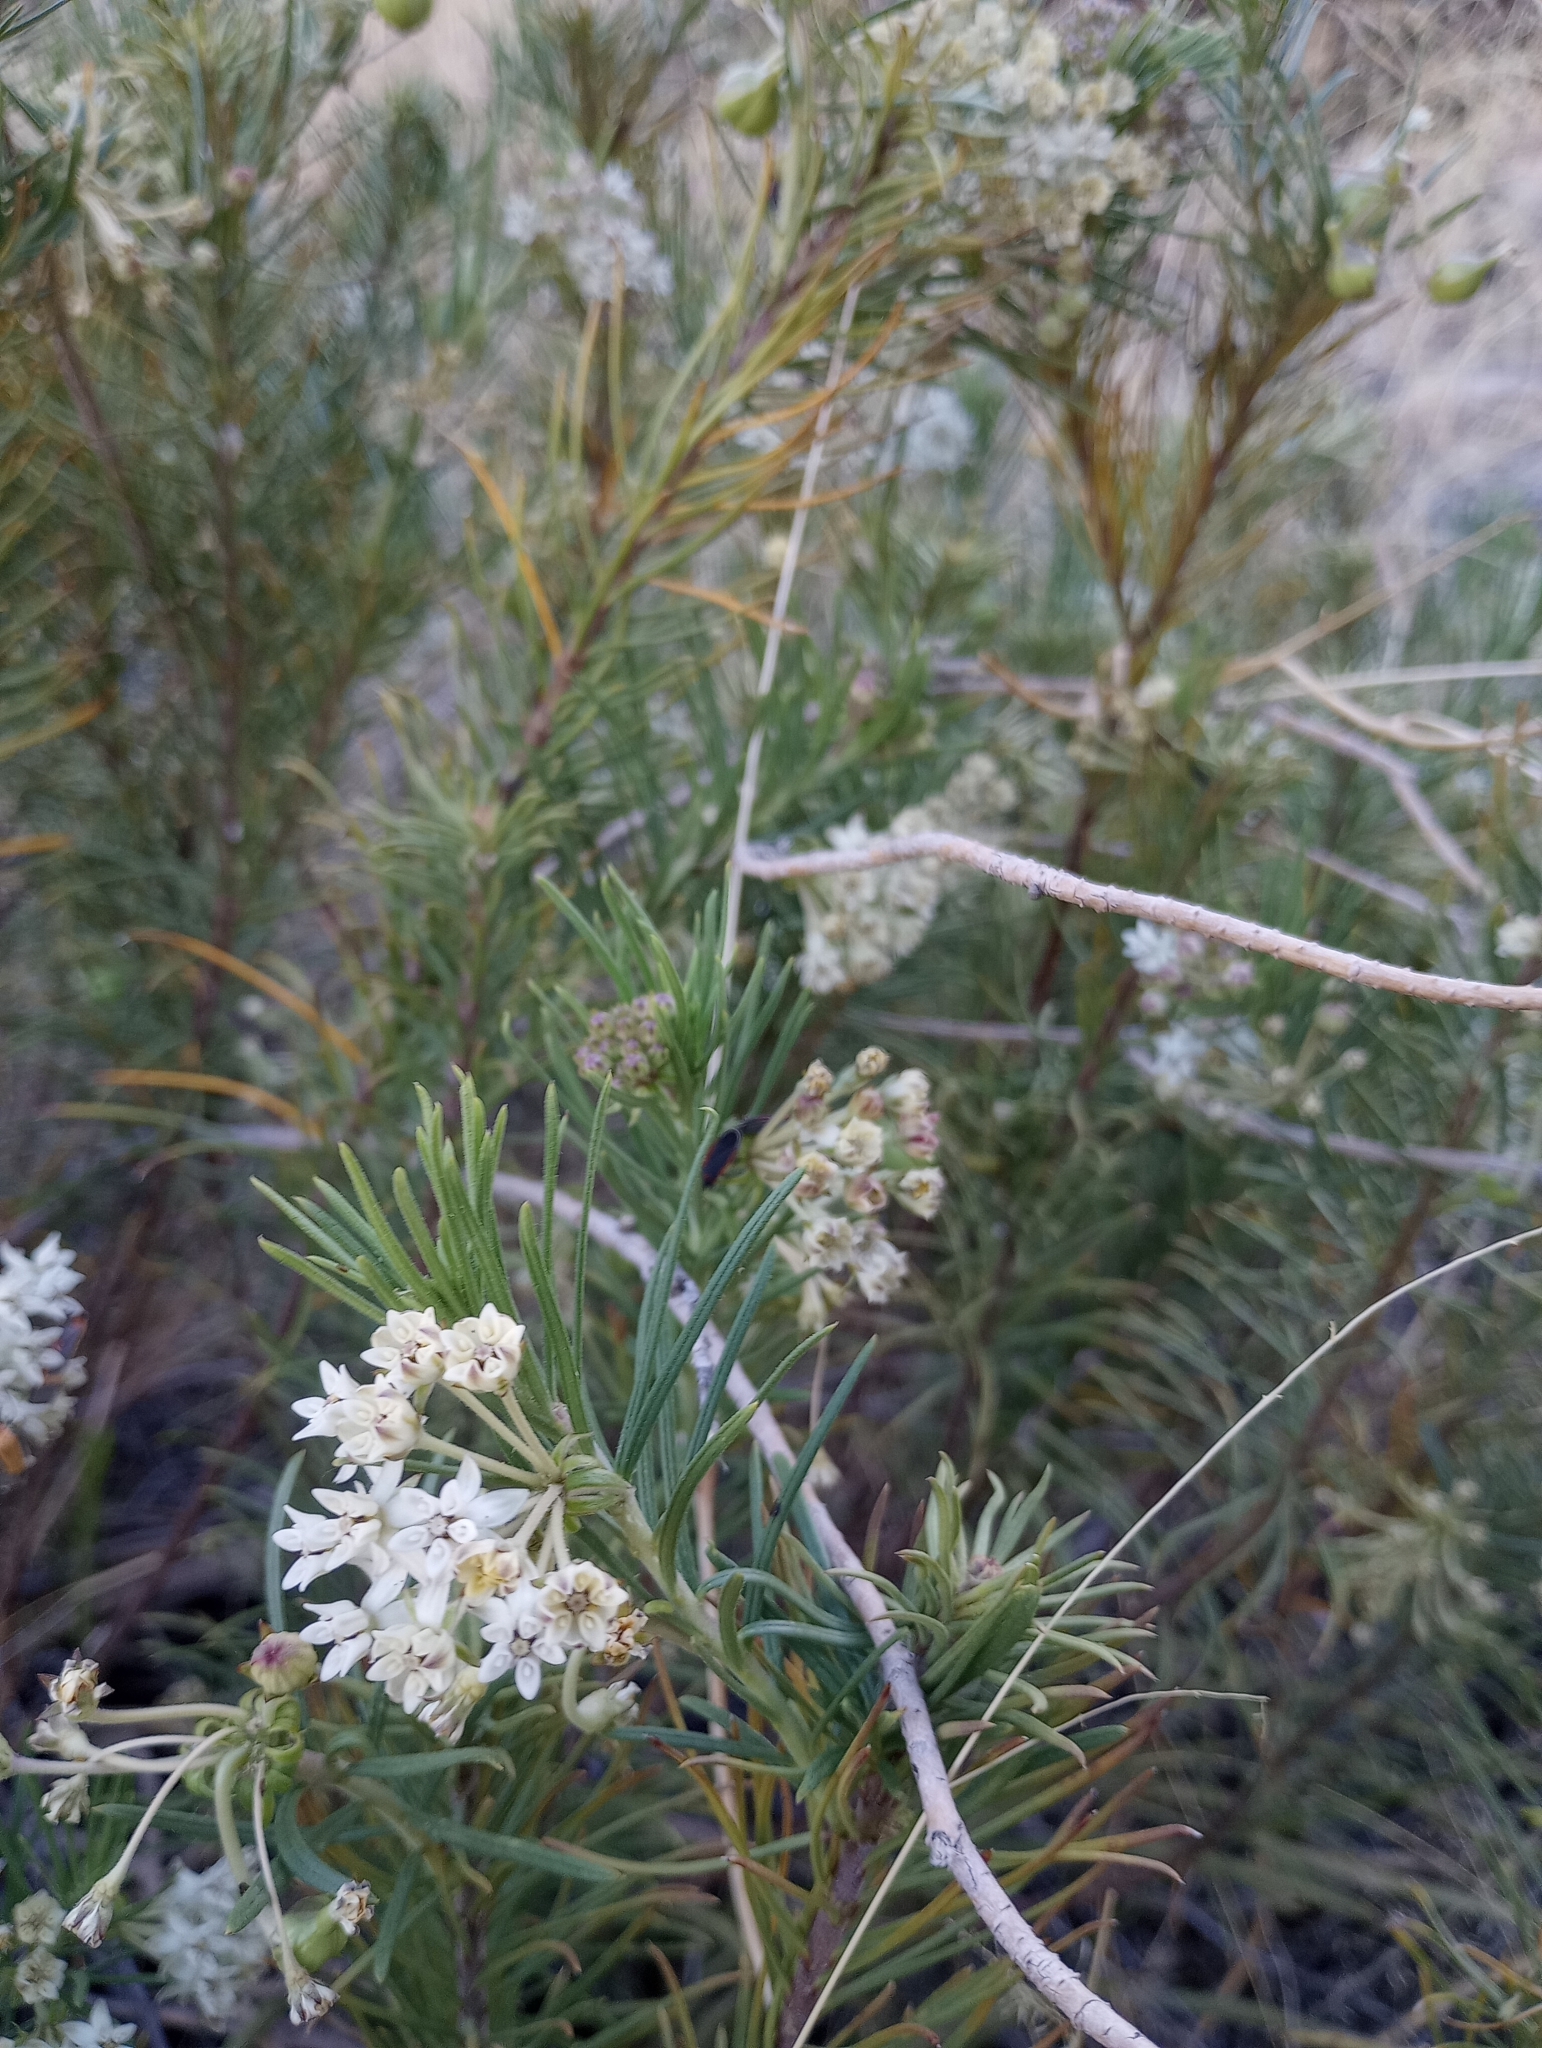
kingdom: Plantae
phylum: Tracheophyta
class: Magnoliopsida
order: Gentianales
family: Apocynaceae
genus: Asclepias
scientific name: Asclepias linaria
